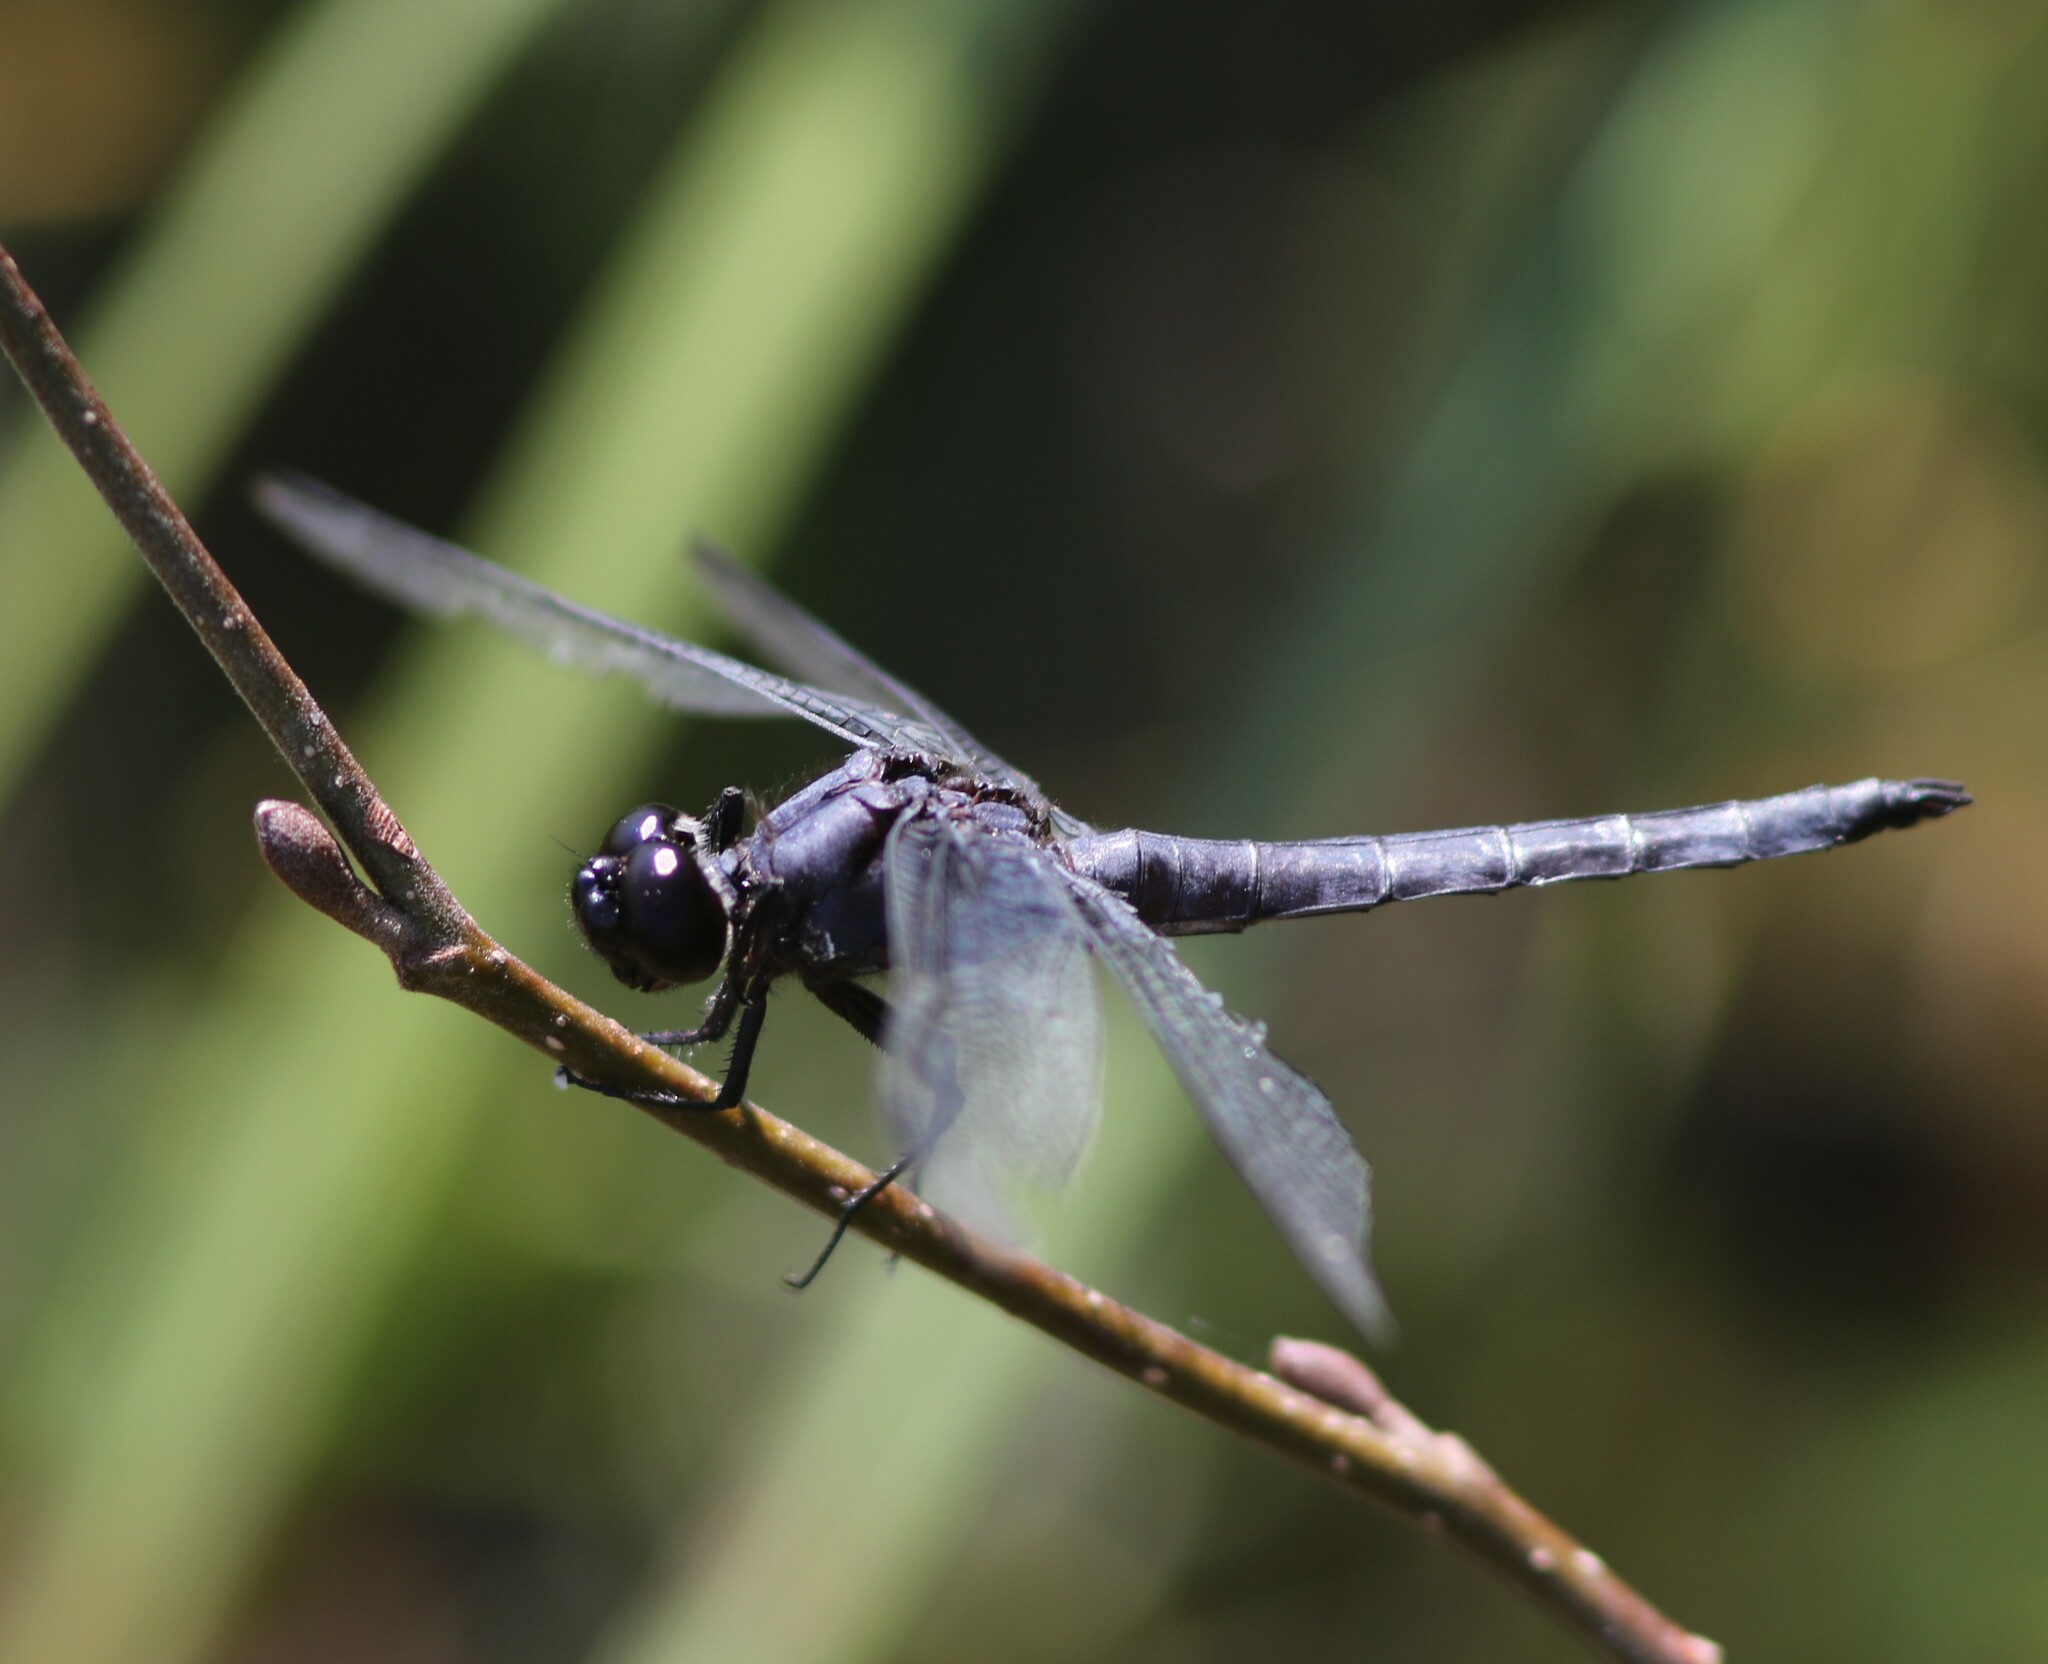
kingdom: Animalia
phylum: Arthropoda
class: Insecta
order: Odonata
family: Libellulidae
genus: Libellula
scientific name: Libellula incesta
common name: Slaty skimmer
